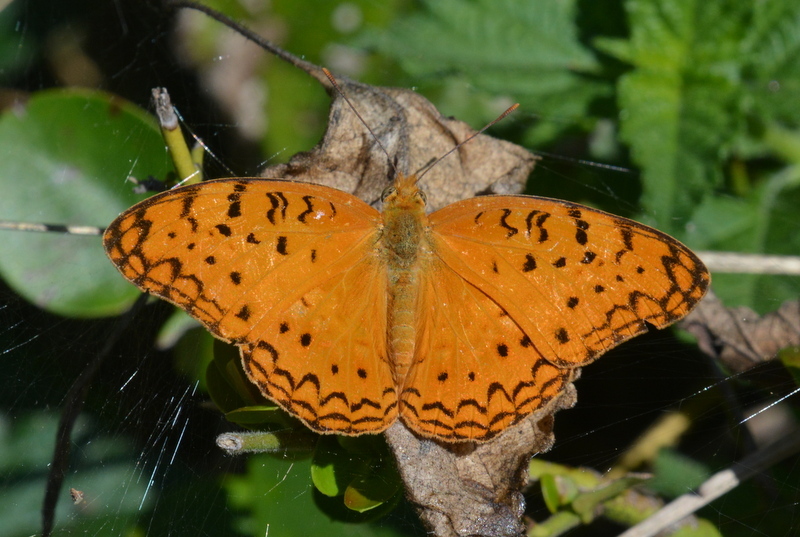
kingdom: Animalia
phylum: Arthropoda
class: Insecta
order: Lepidoptera
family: Nymphalidae
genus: Phalanta
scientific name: Phalanta phalantha
